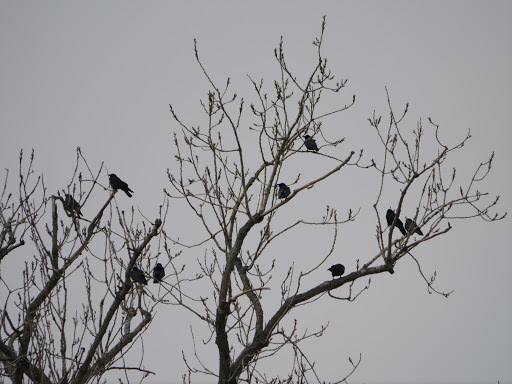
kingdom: Animalia
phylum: Chordata
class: Aves
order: Passeriformes
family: Corvidae
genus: Corvus
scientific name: Corvus
